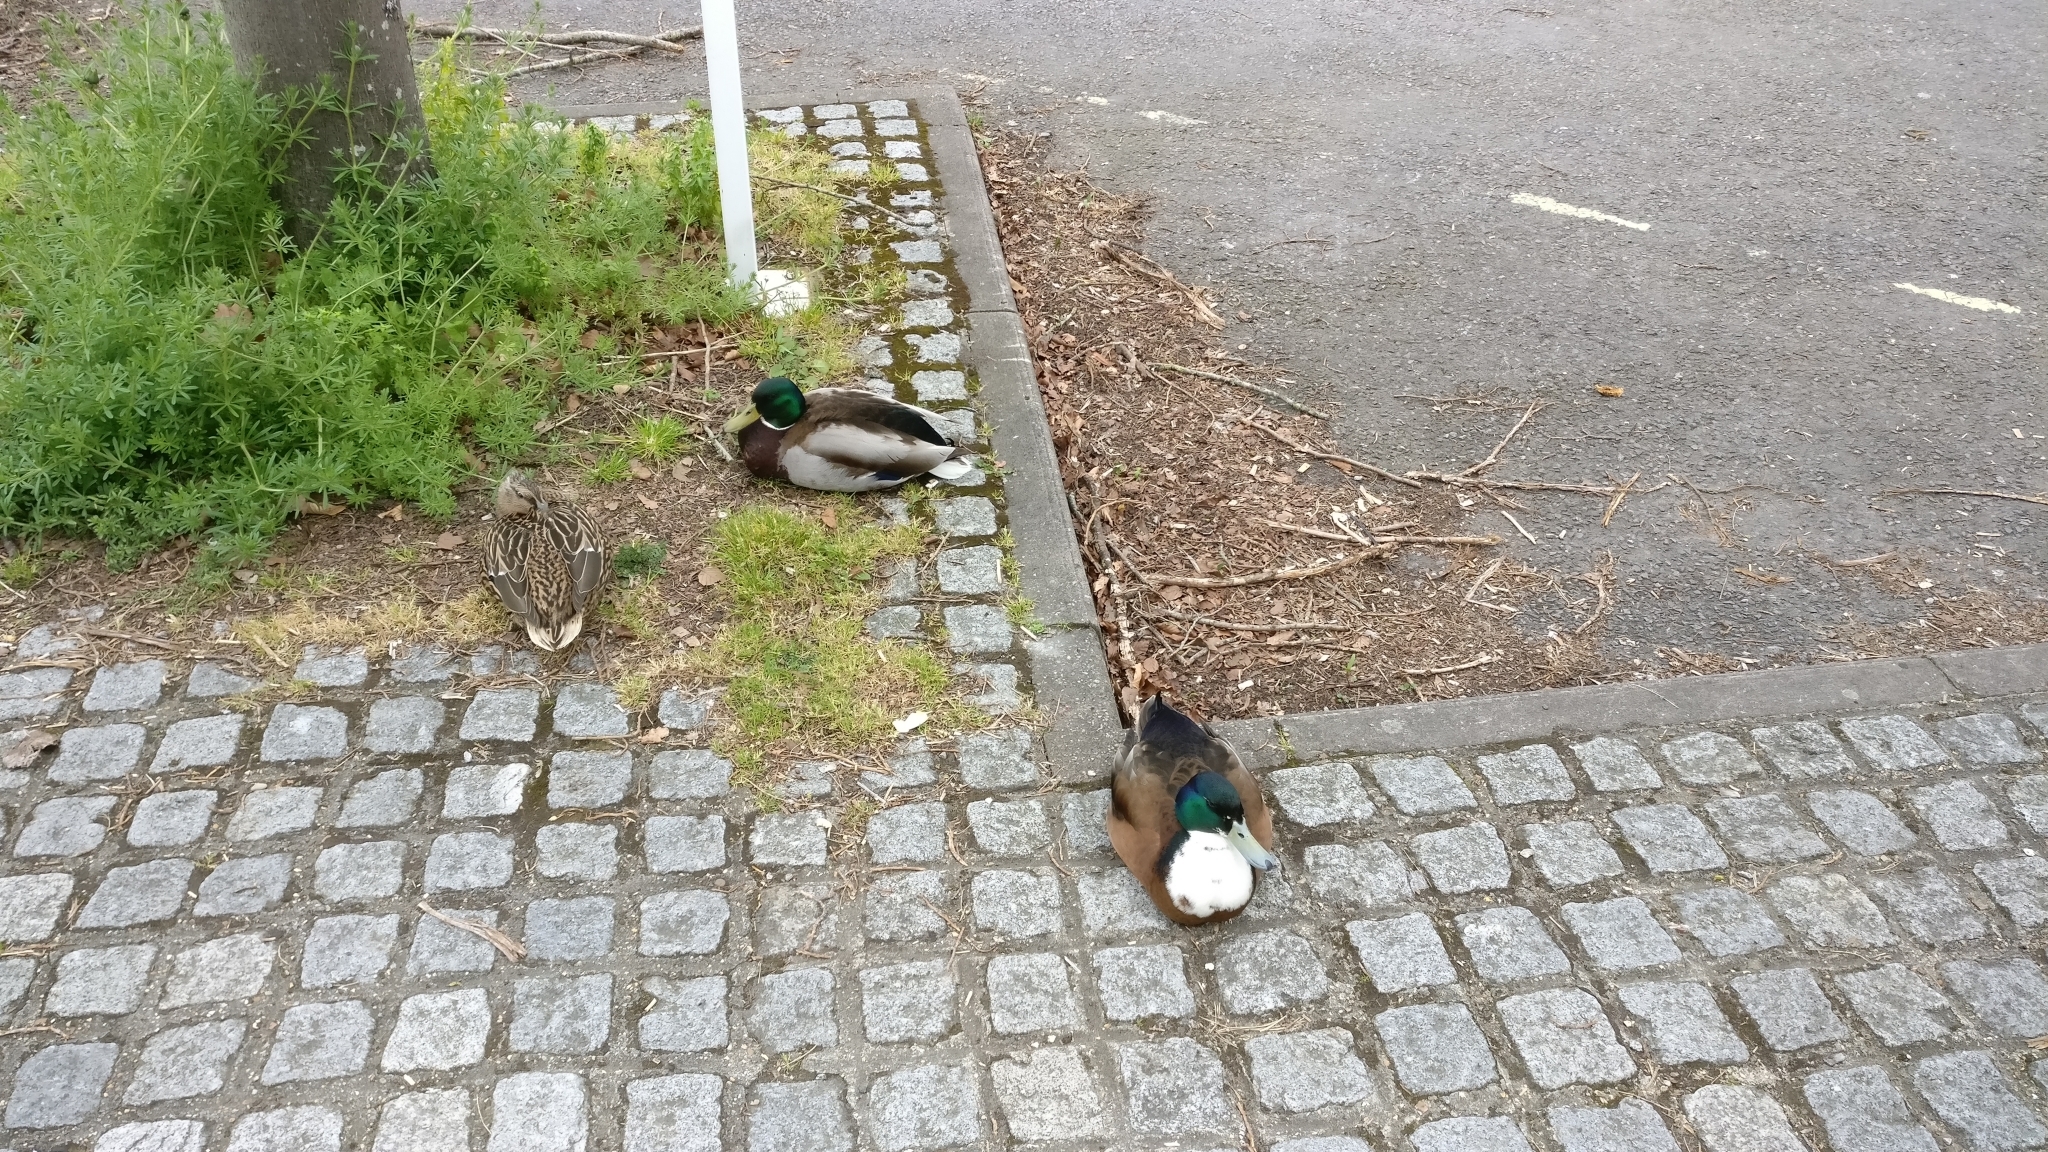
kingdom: Animalia
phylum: Chordata
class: Aves
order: Anseriformes
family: Anatidae
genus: Anas
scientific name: Anas platyrhynchos
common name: Mallard
